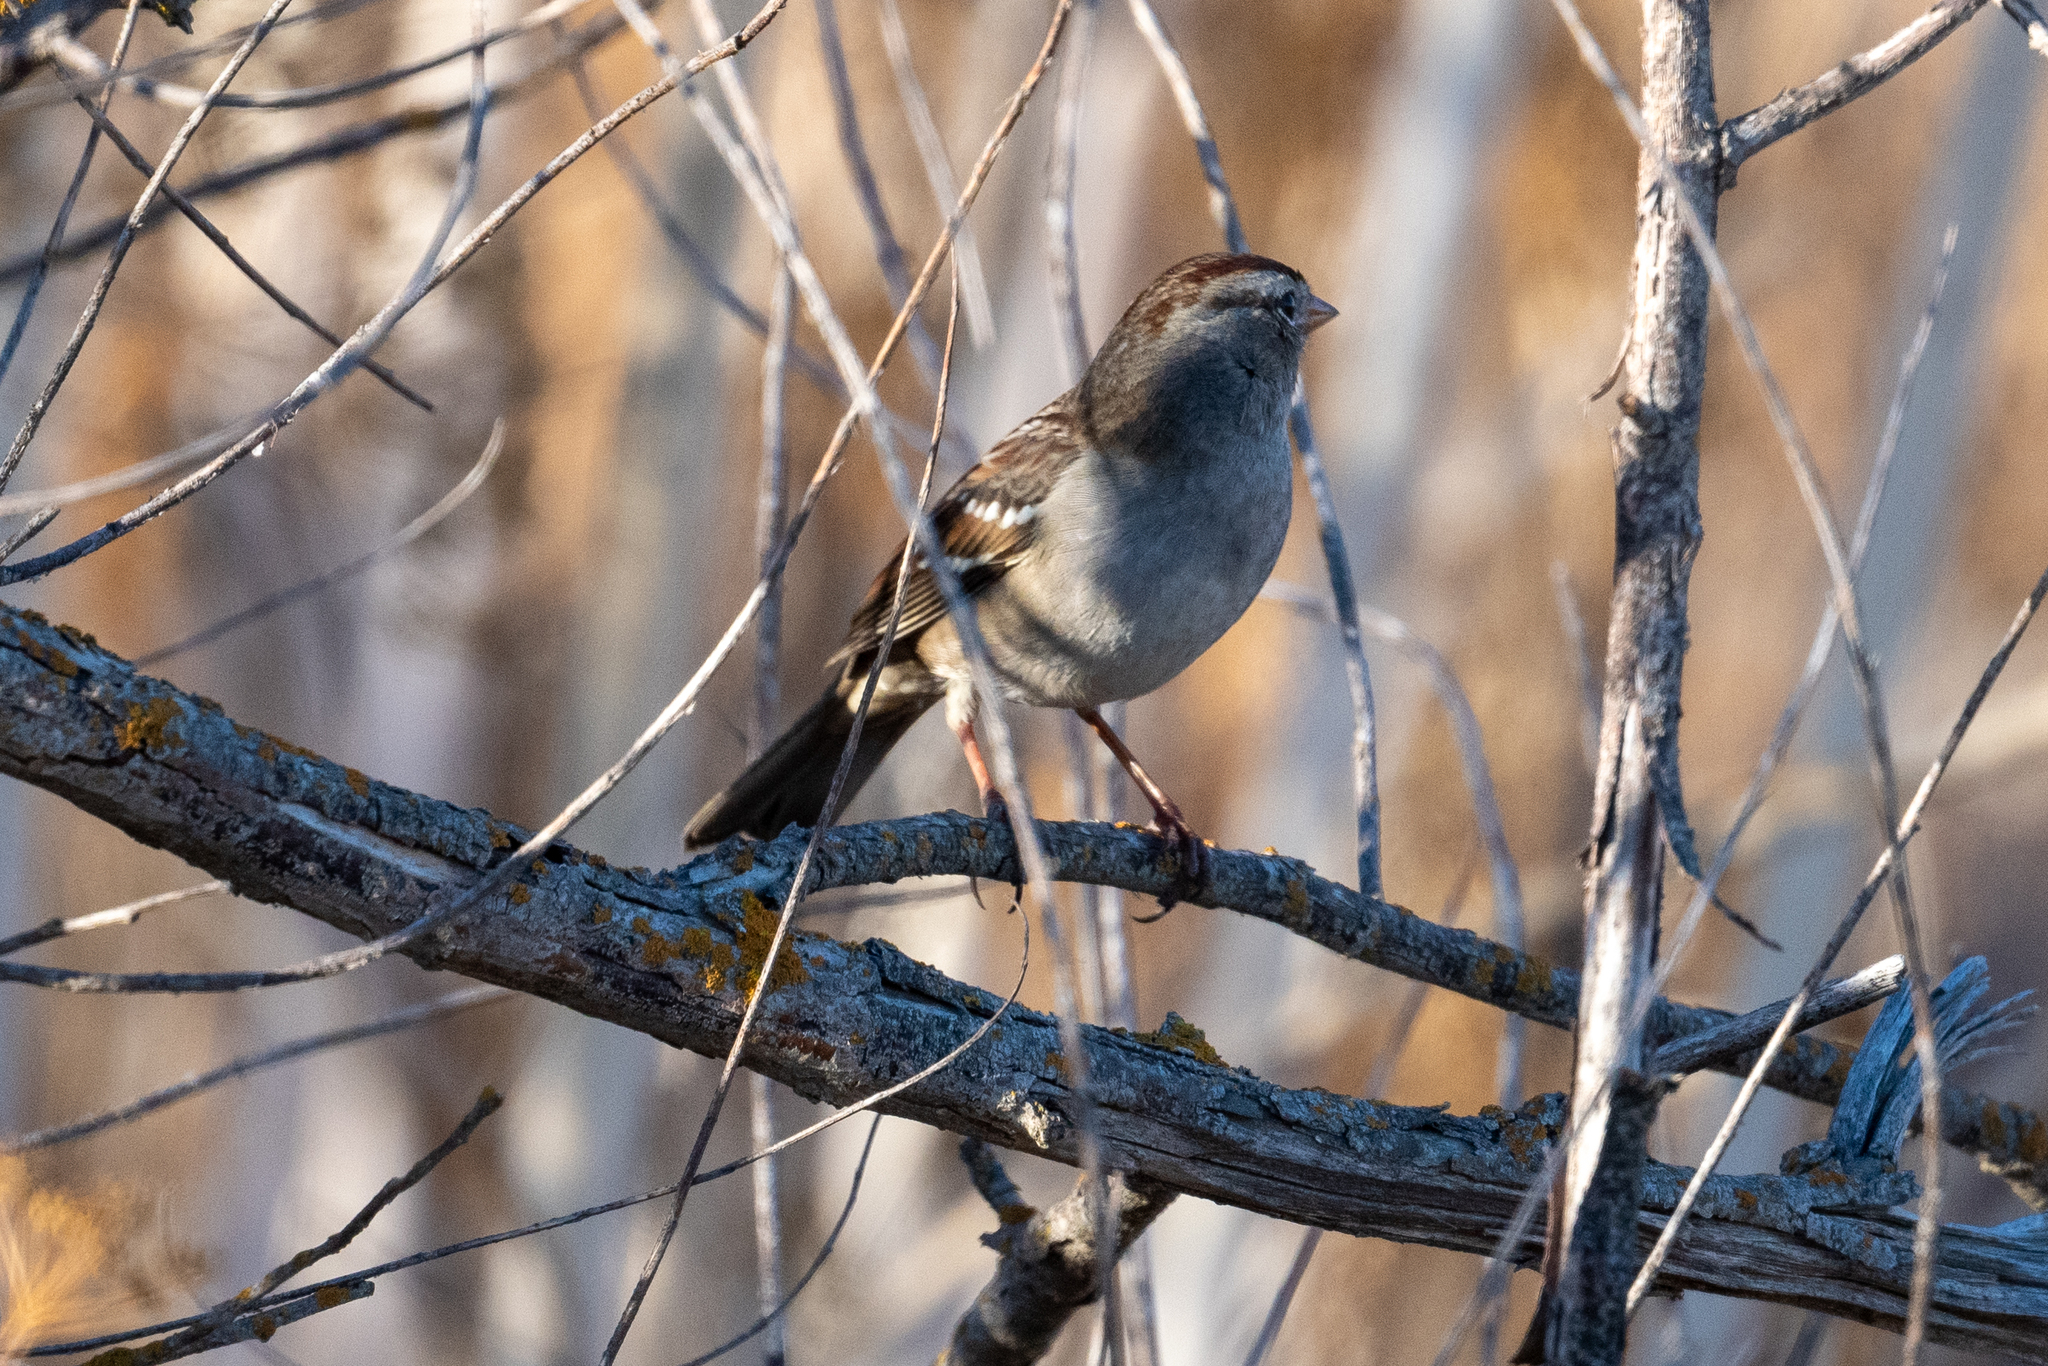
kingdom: Animalia
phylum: Chordata
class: Aves
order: Passeriformes
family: Passerellidae
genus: Zonotrichia
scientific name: Zonotrichia leucophrys
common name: White-crowned sparrow
